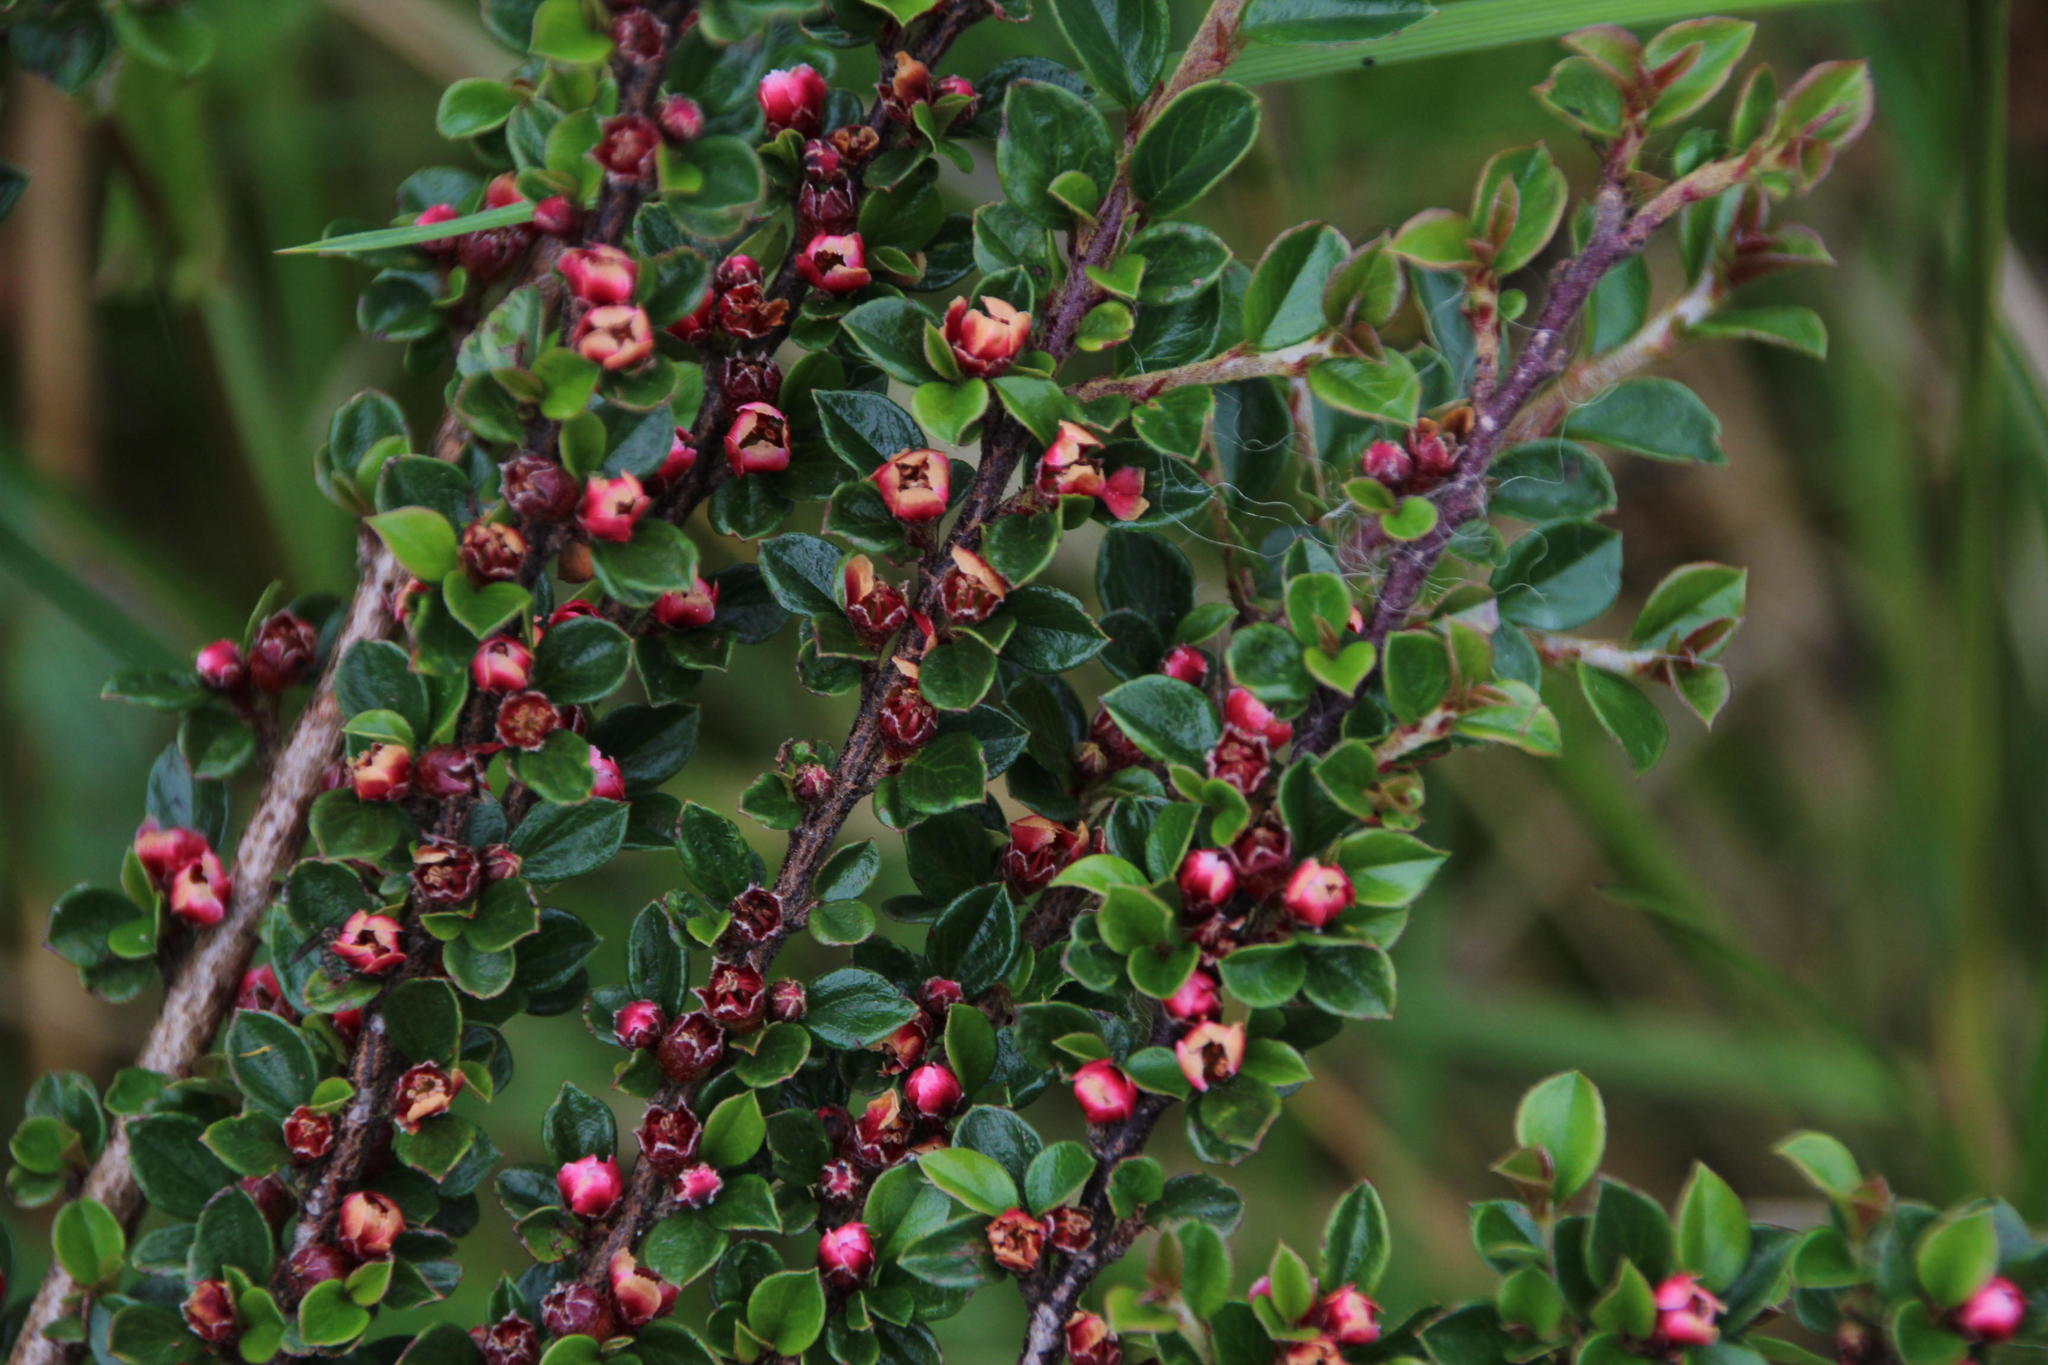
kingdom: Plantae
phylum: Tracheophyta
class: Magnoliopsida
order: Rosales
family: Rosaceae
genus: Cotoneaster
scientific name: Cotoneaster horizontalis
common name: Wall cotoneaster
